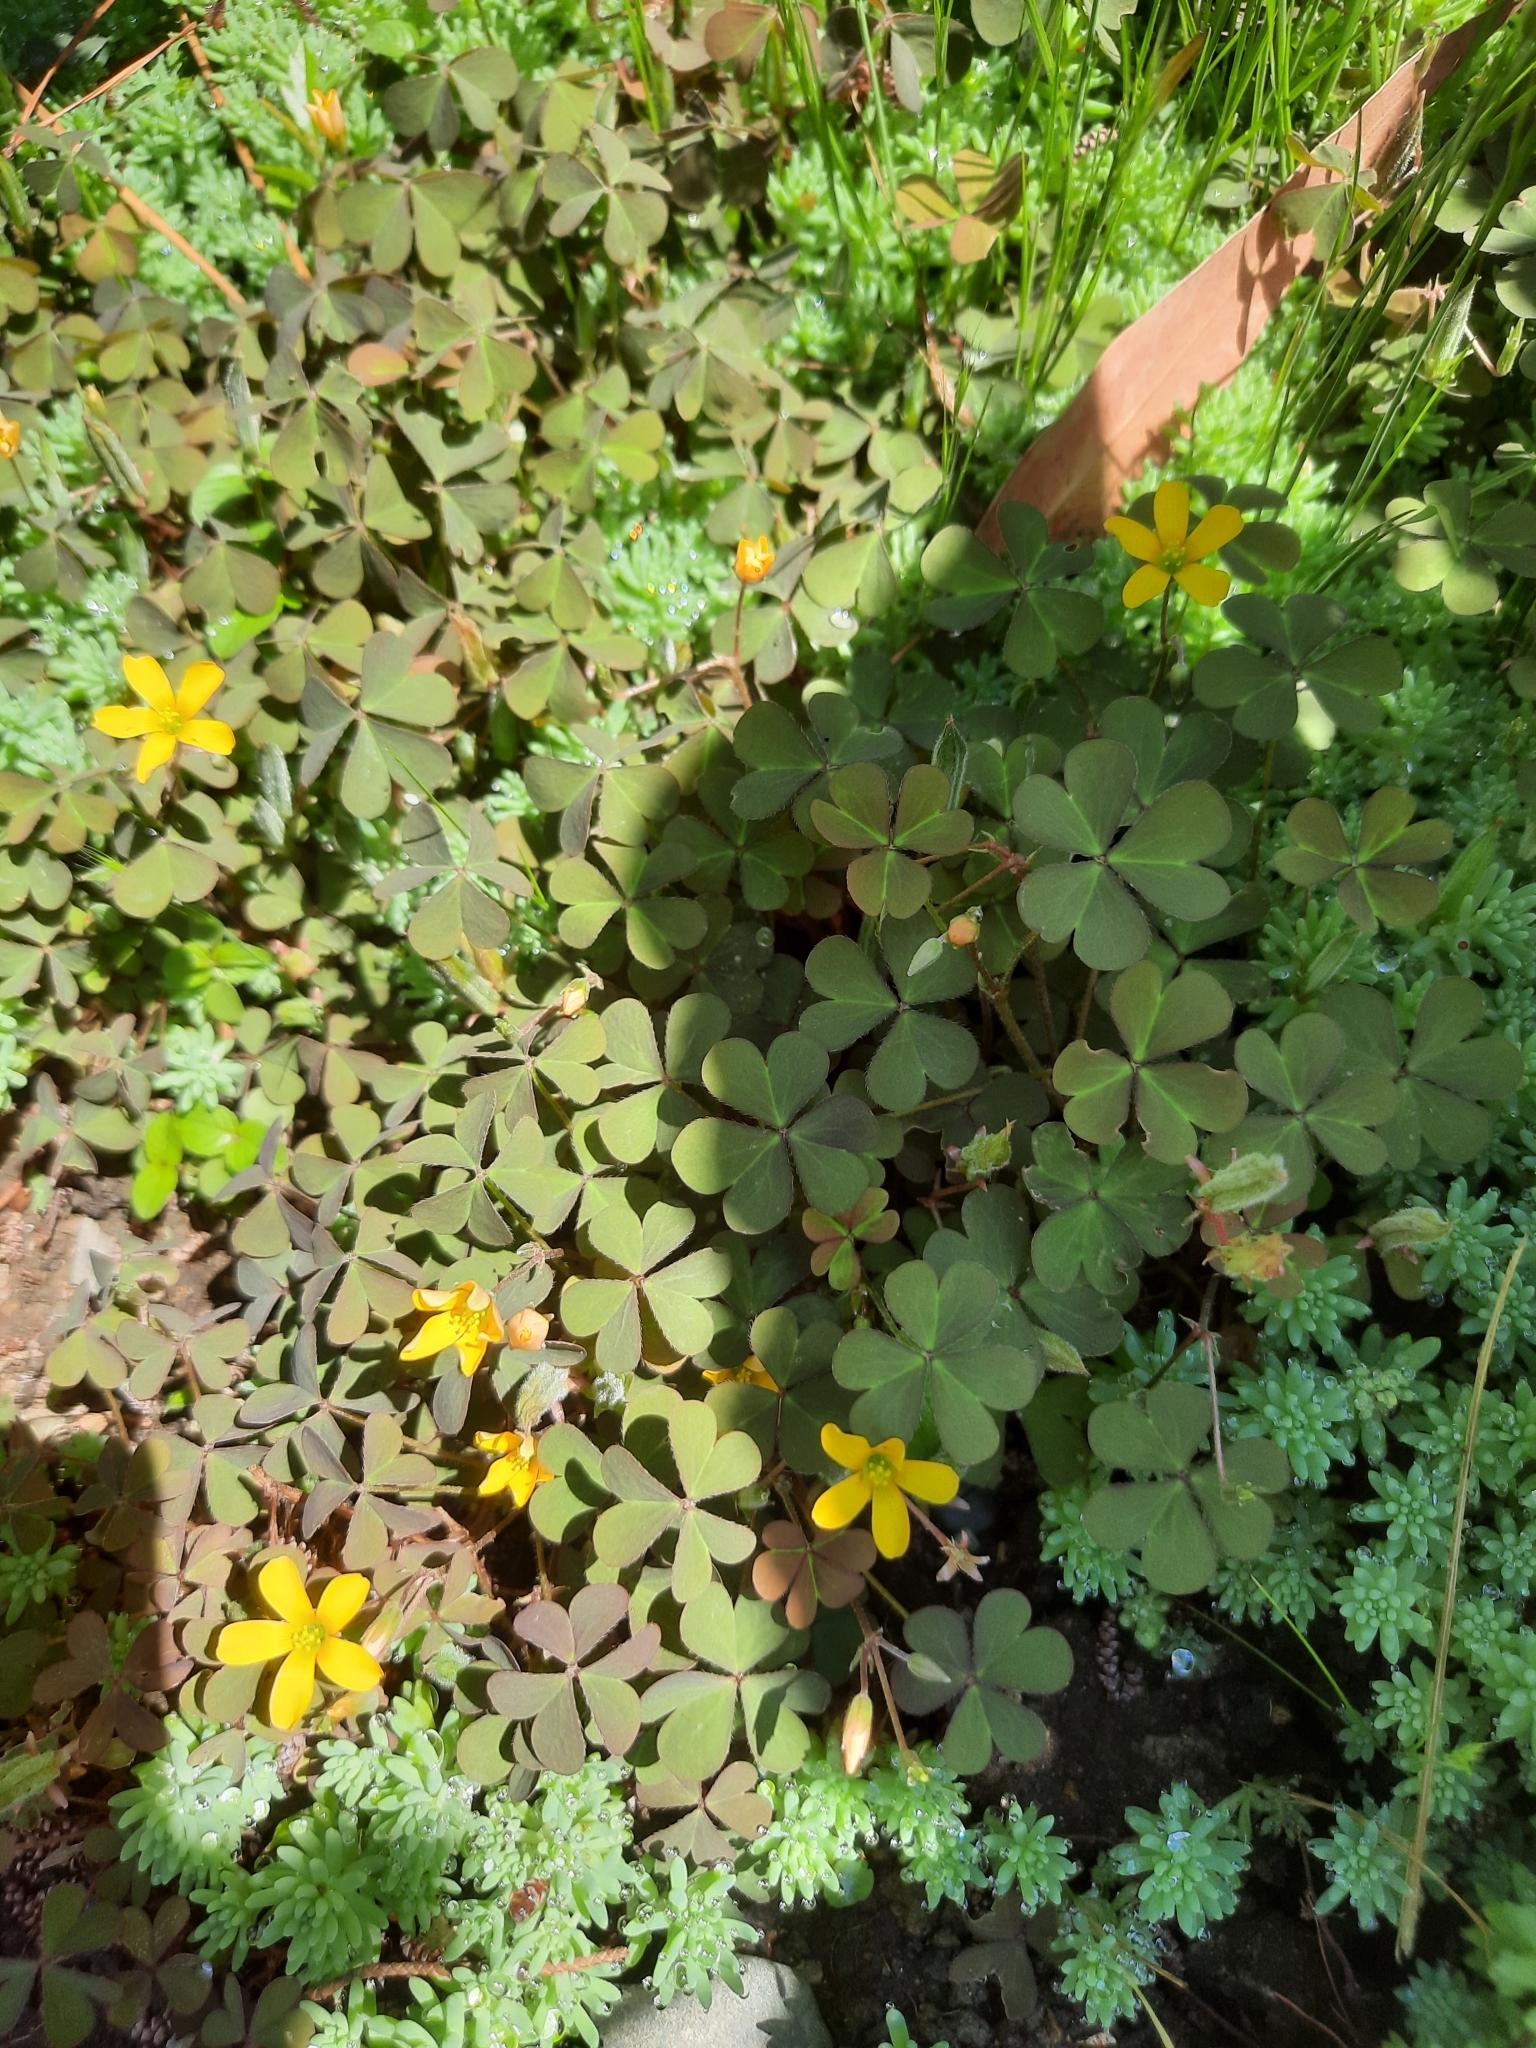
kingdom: Plantae
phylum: Tracheophyta
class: Magnoliopsida
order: Oxalidales
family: Oxalidaceae
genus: Oxalis
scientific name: Oxalis corniculata
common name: Procumbent yellow-sorrel
